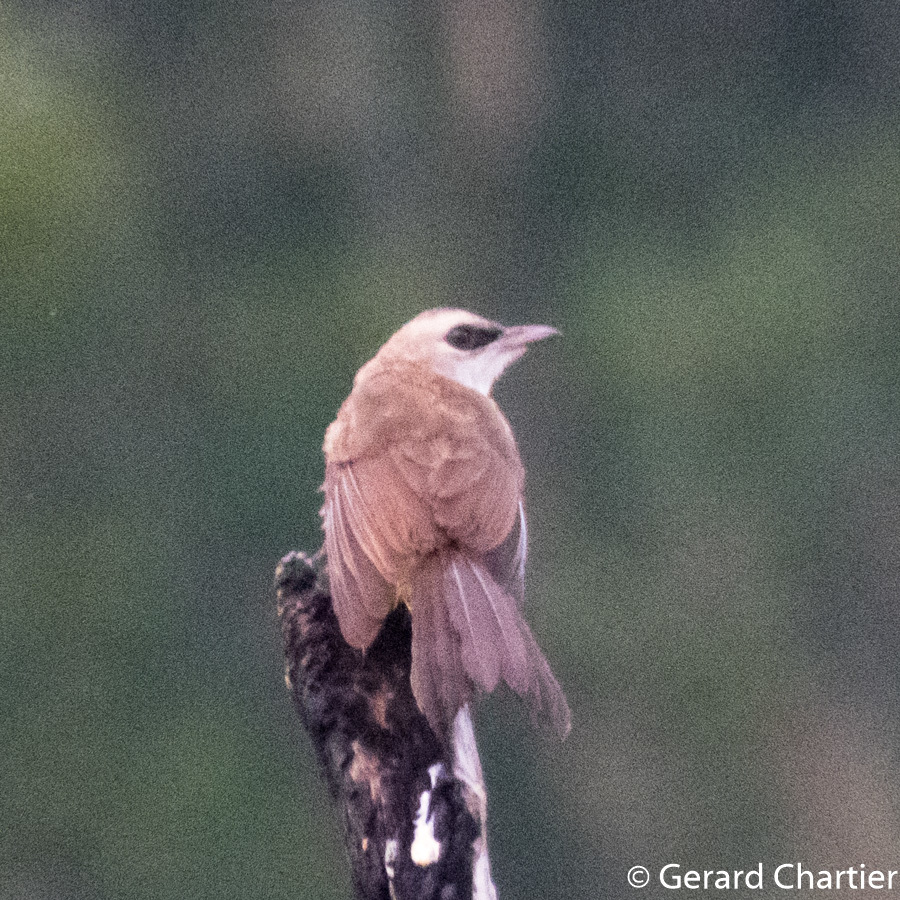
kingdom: Animalia
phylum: Chordata
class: Aves
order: Passeriformes
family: Pycnonotidae
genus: Pycnonotus
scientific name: Pycnonotus goiavier
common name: Yellow-vented bulbul
